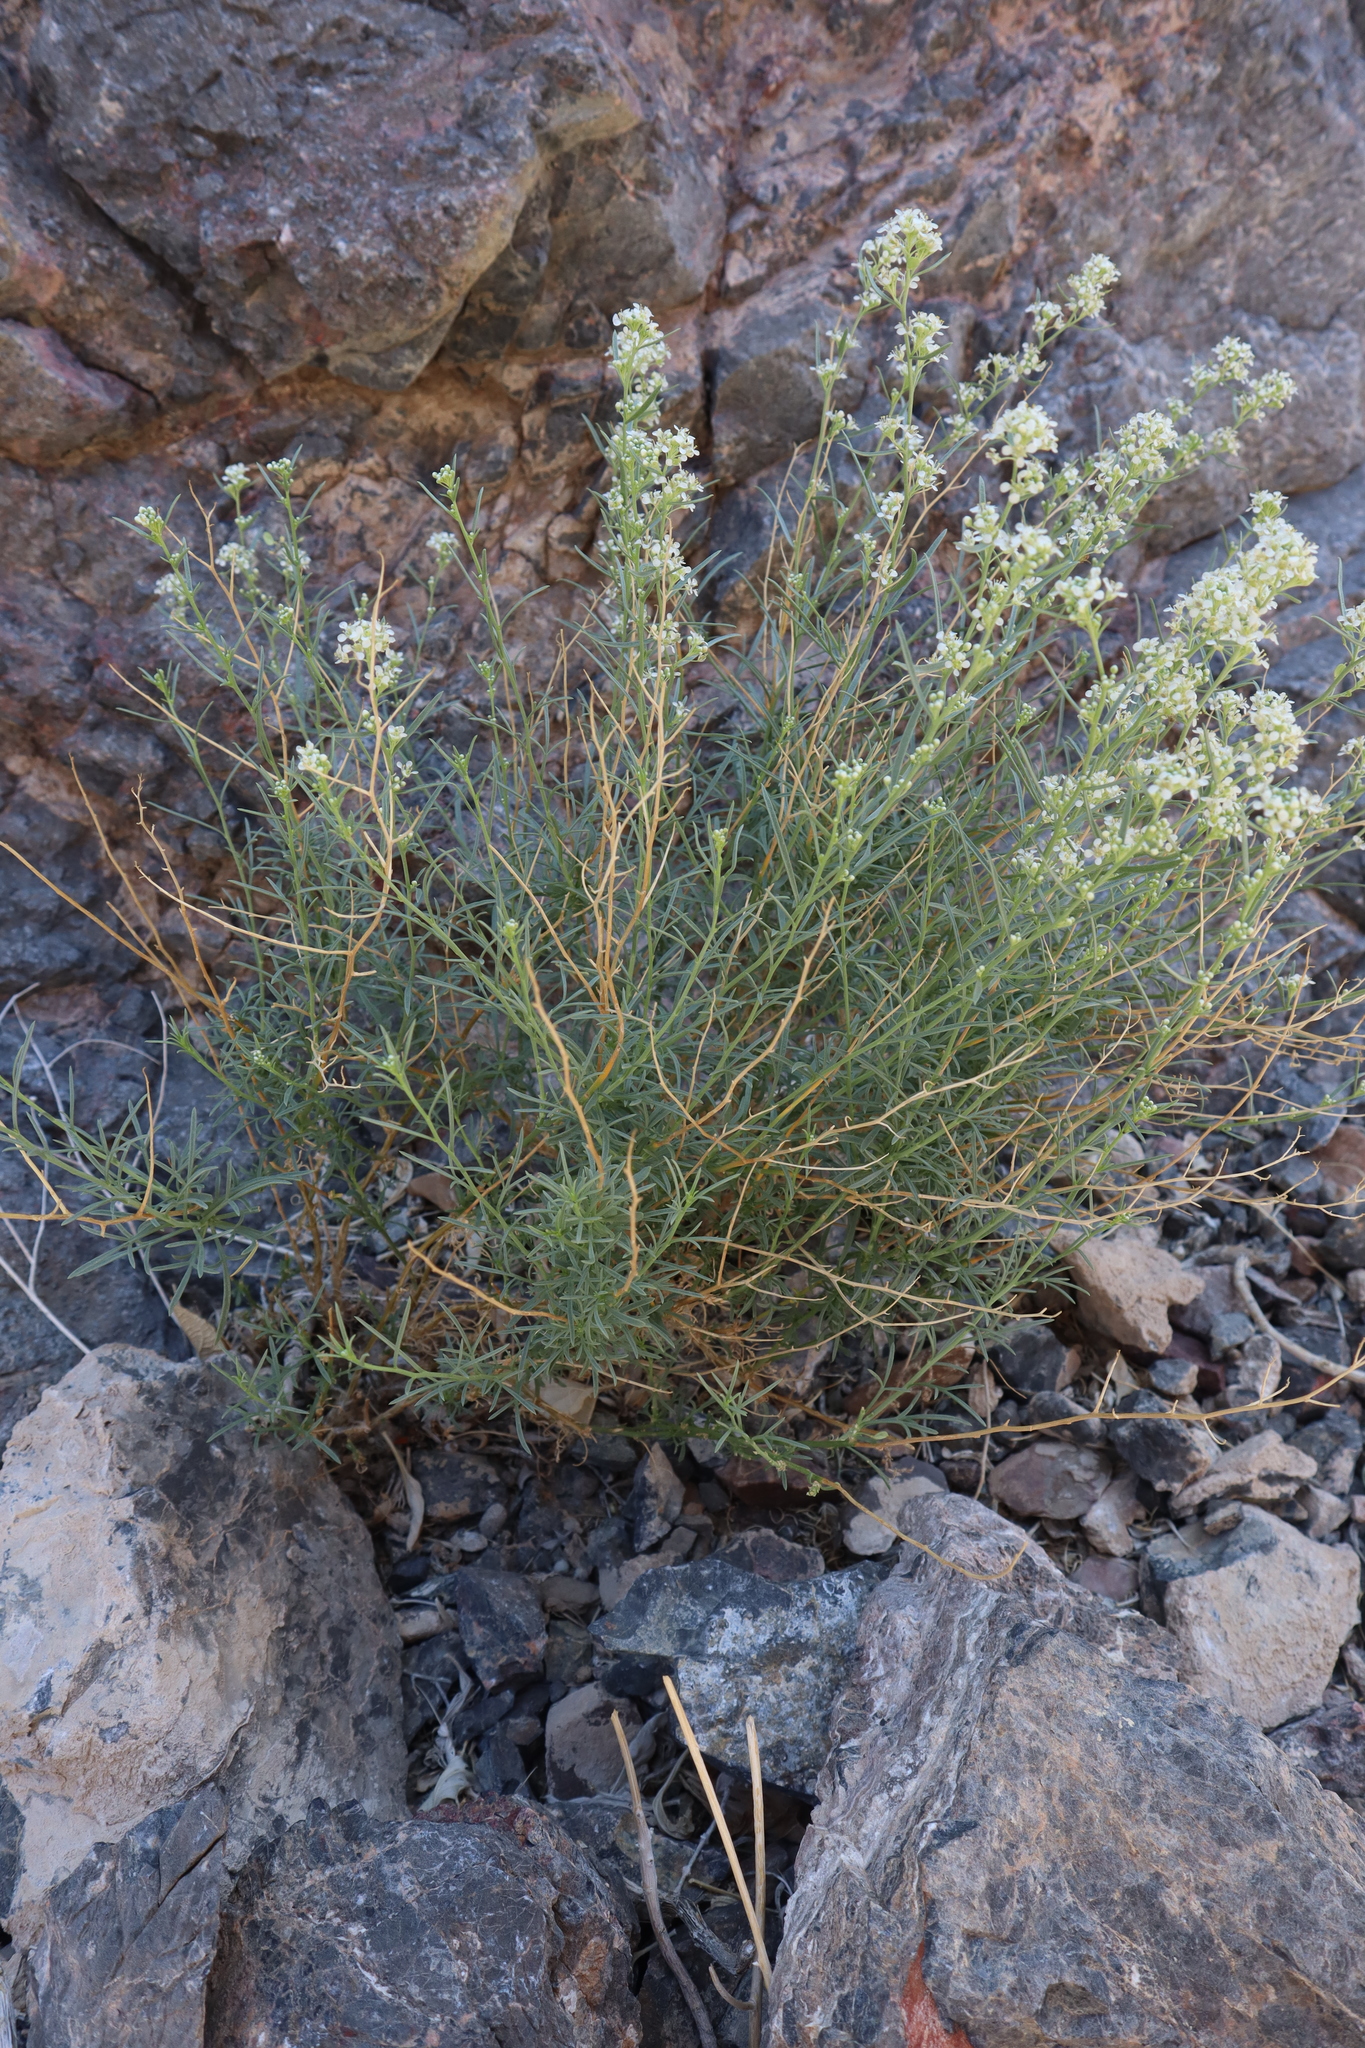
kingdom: Plantae
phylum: Tracheophyta
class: Magnoliopsida
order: Brassicales
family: Brassicaceae
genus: Lepidium
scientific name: Lepidium fremontii
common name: Fremont's pepperwort
